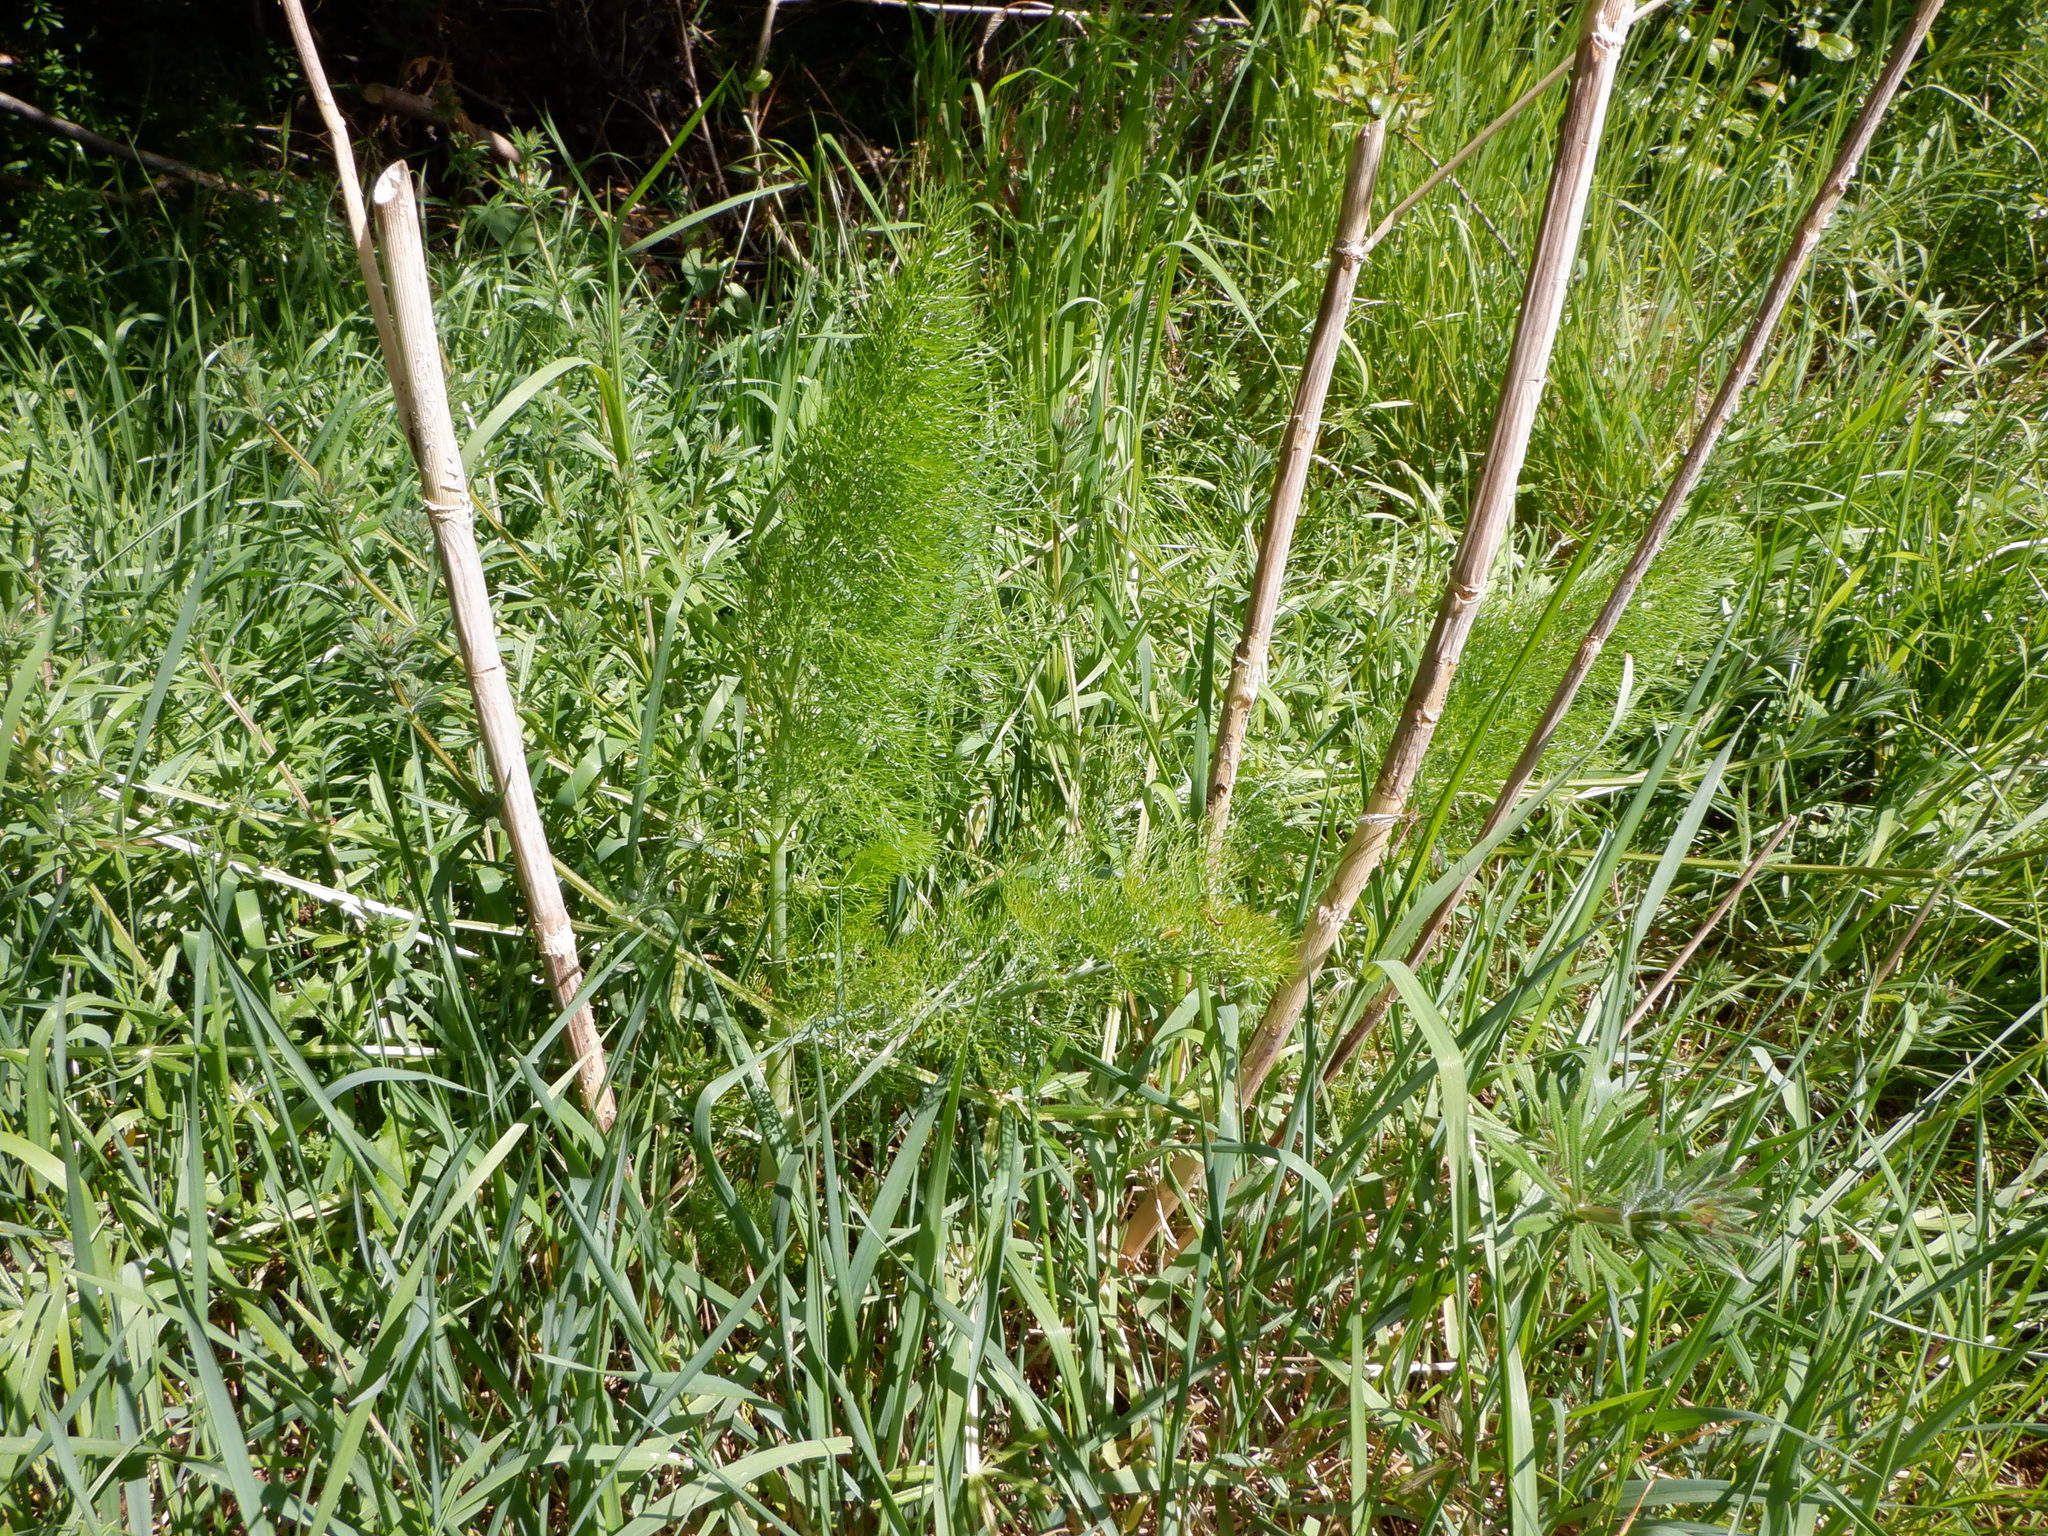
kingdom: Plantae
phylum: Tracheophyta
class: Magnoliopsida
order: Apiales
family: Apiaceae
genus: Foeniculum
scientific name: Foeniculum vulgare
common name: Fennel
